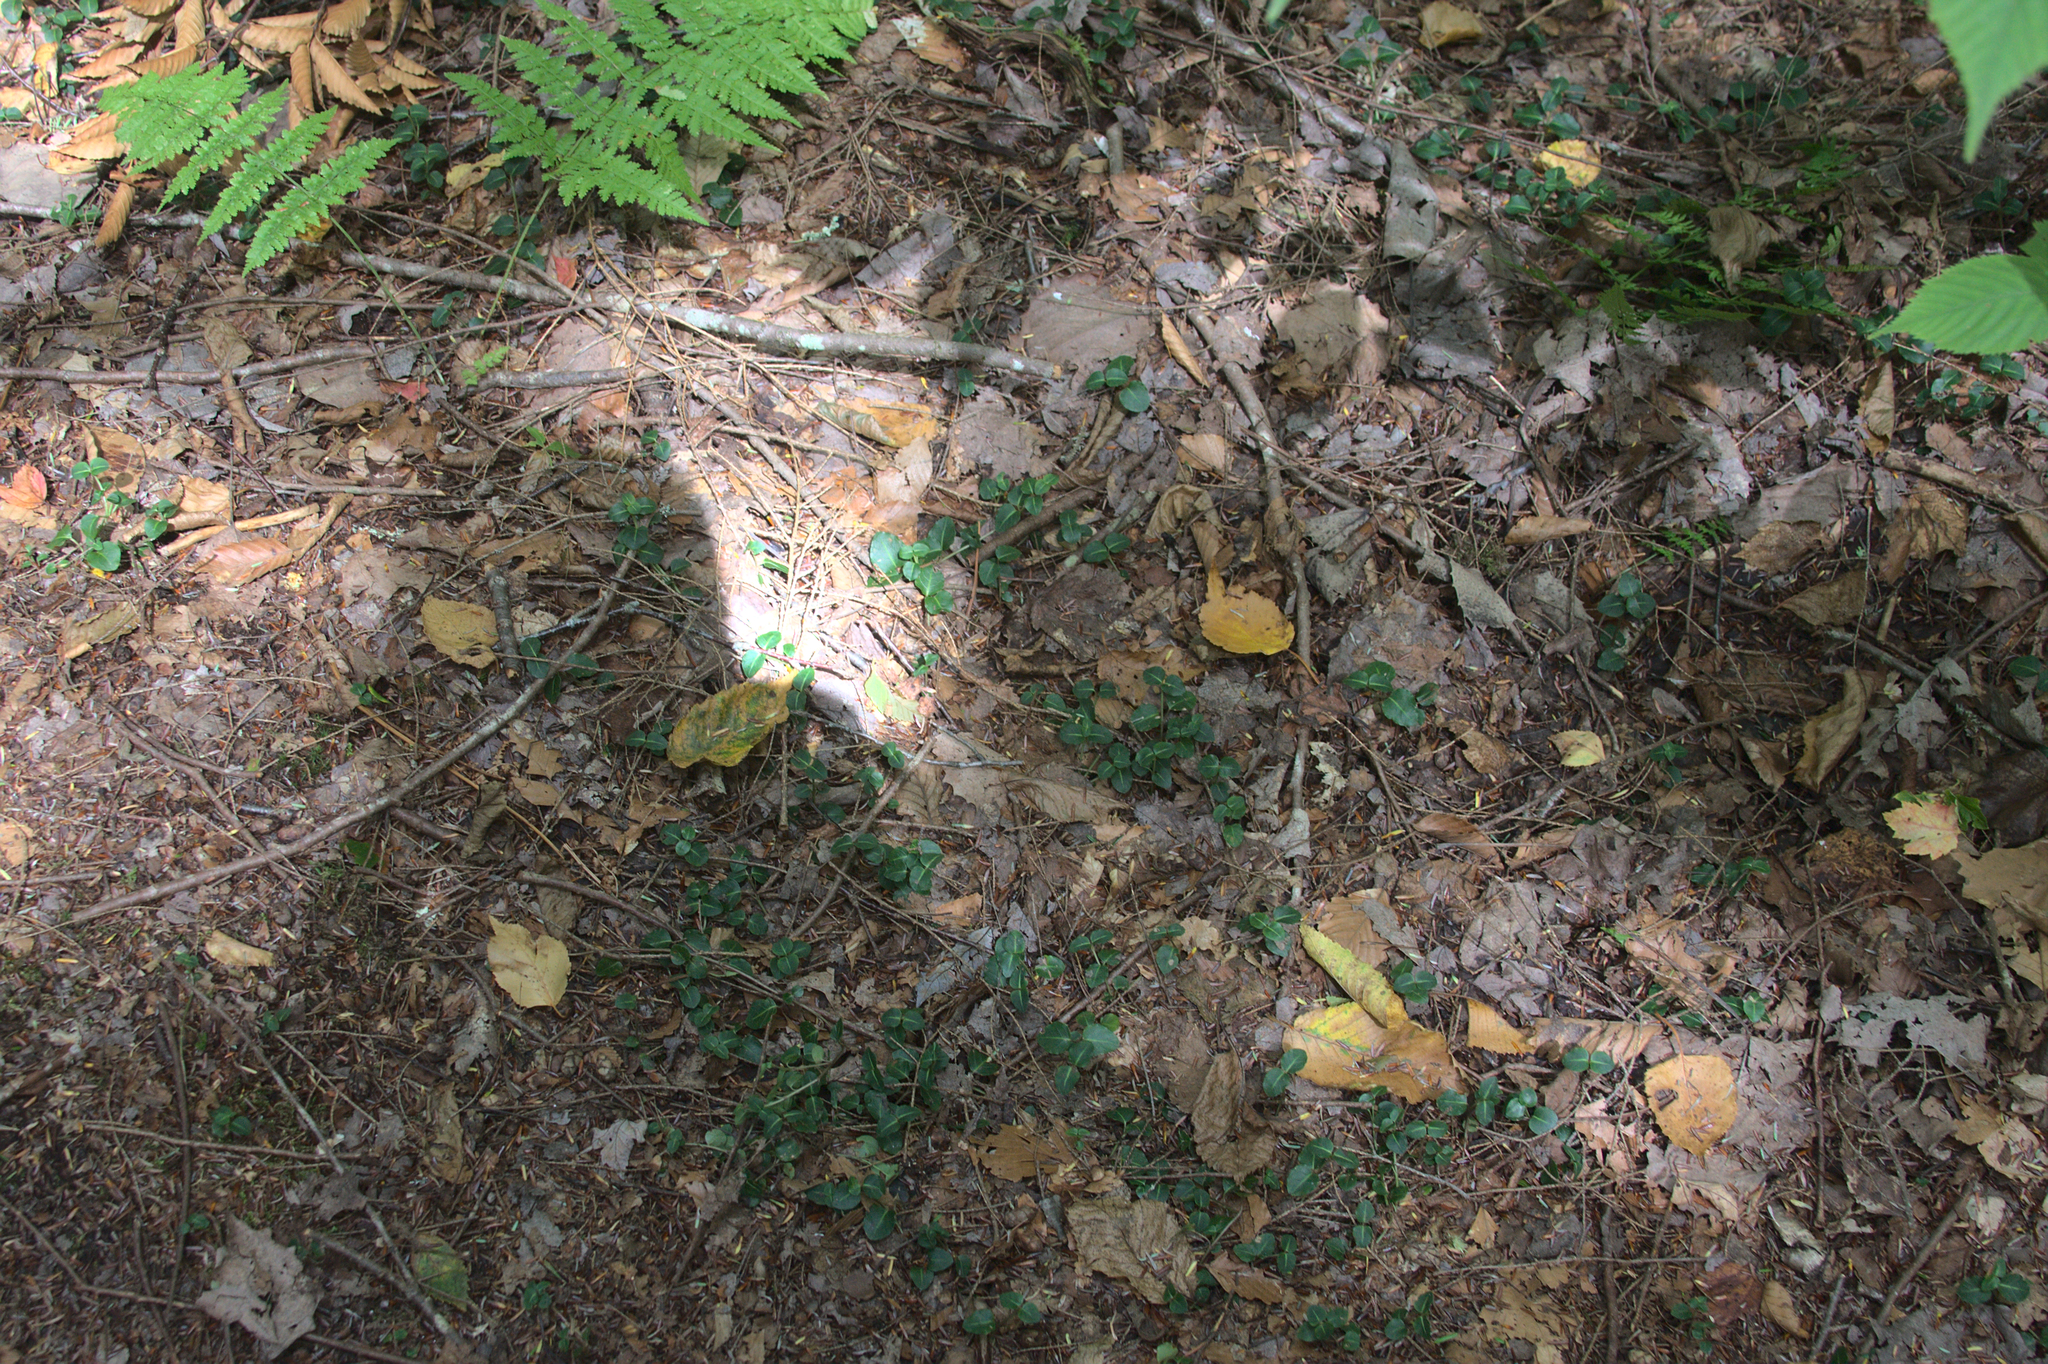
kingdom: Plantae
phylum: Tracheophyta
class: Magnoliopsida
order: Gentianales
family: Rubiaceae
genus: Mitchella
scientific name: Mitchella repens
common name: Partridge-berry
